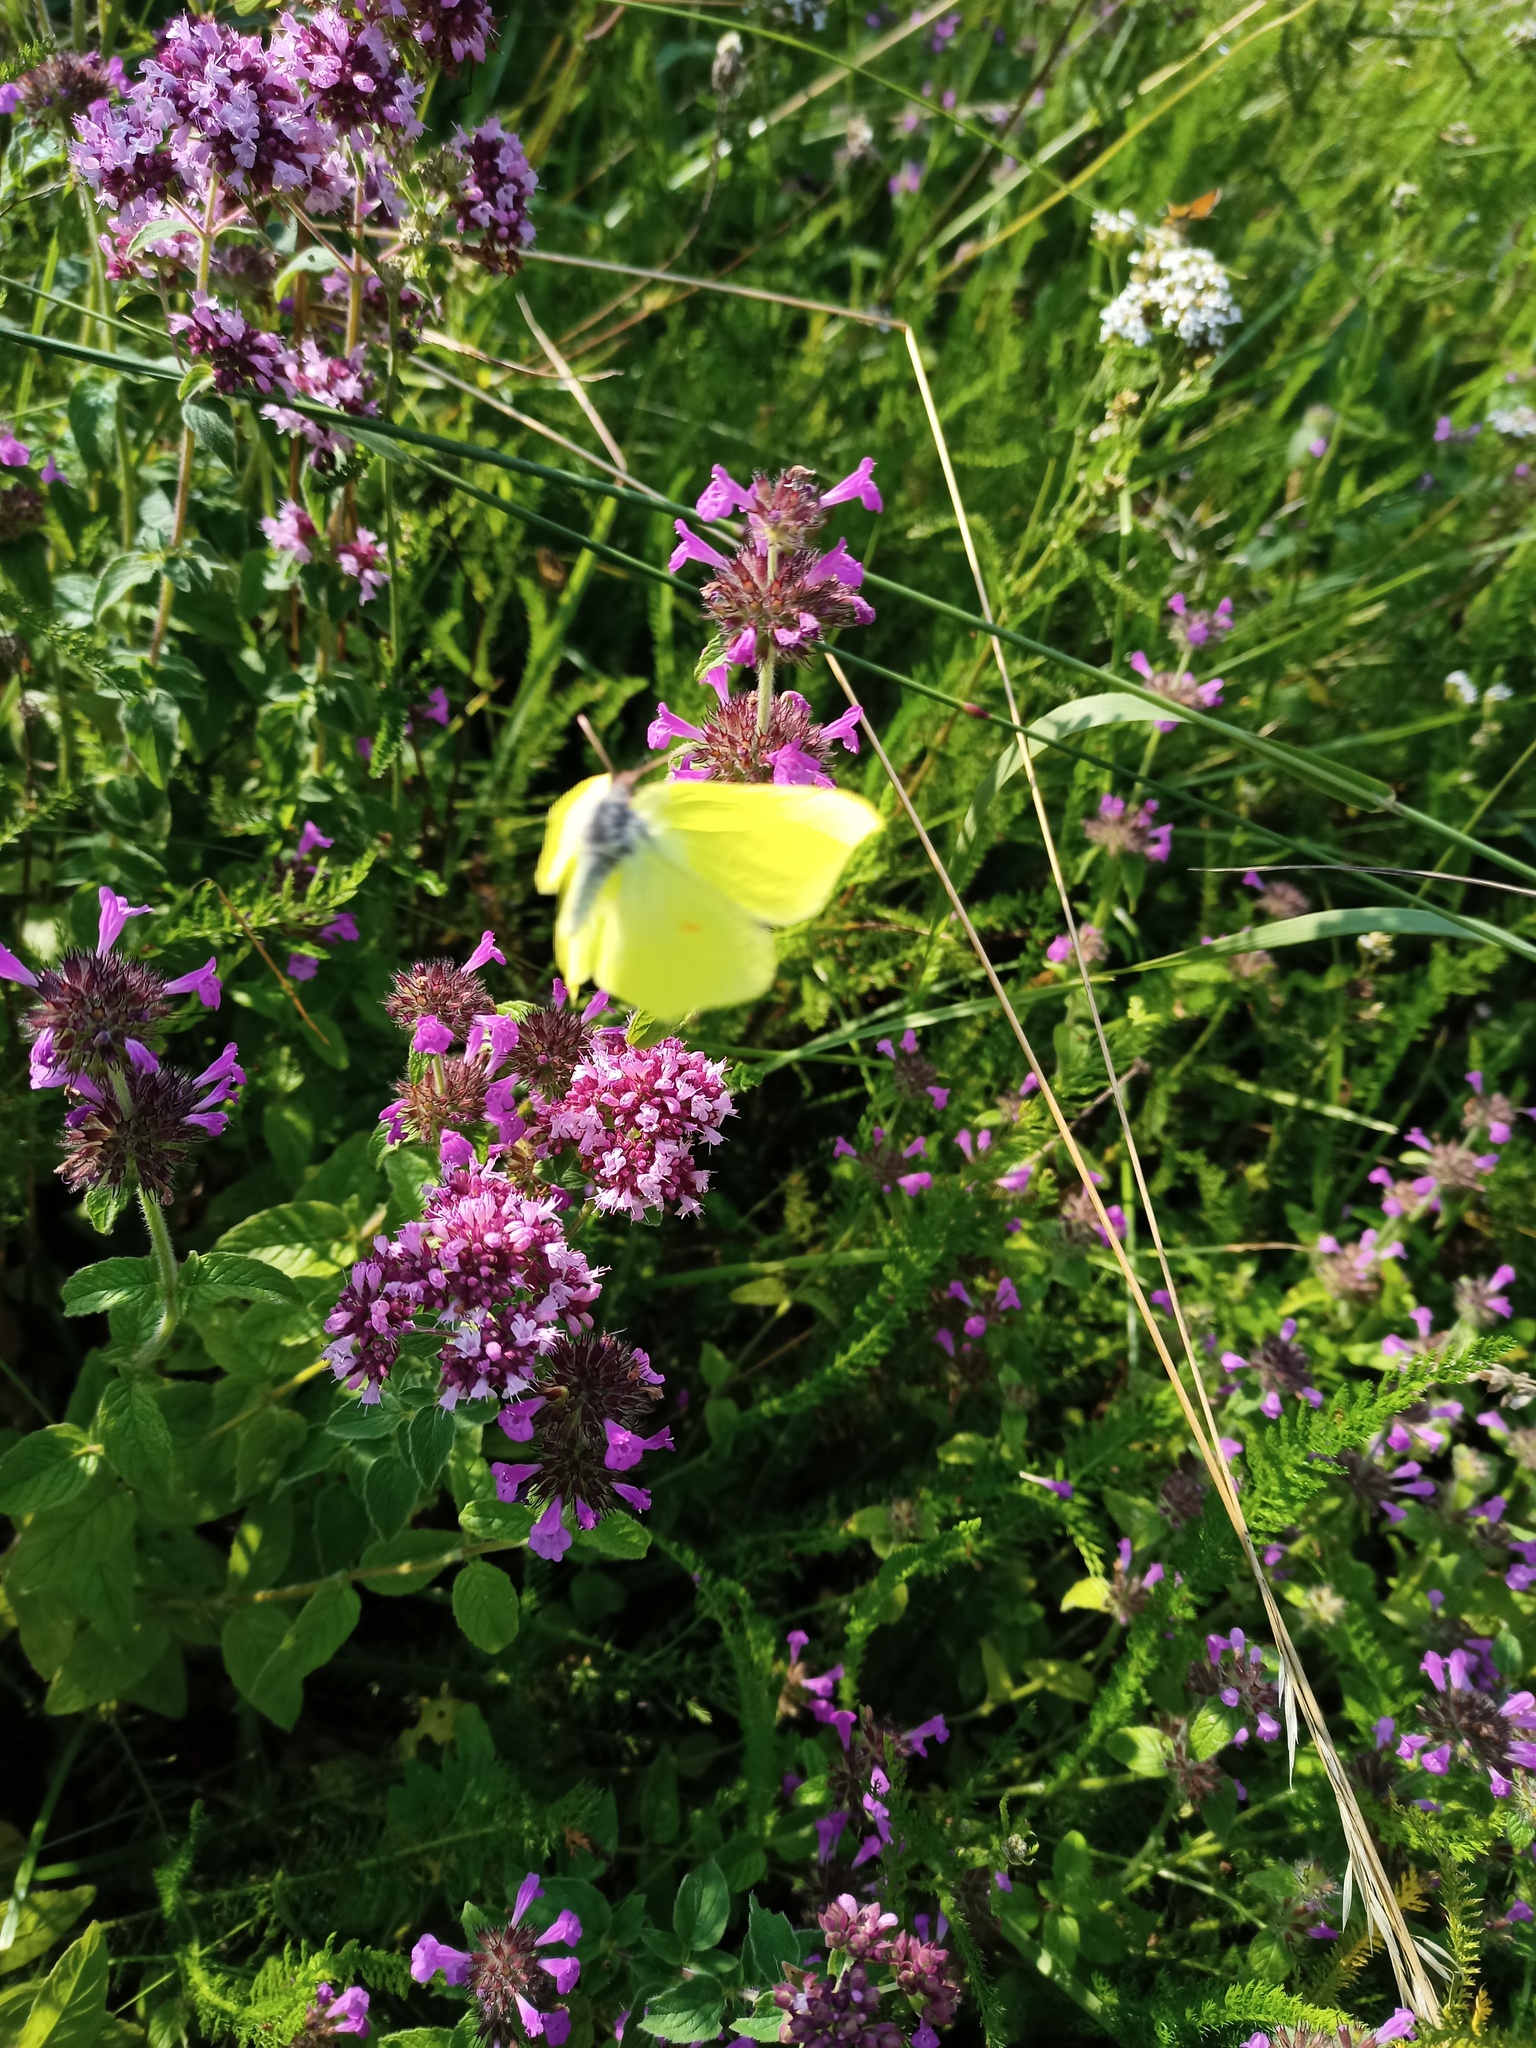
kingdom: Animalia
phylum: Arthropoda
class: Insecta
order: Lepidoptera
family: Pieridae
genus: Gonepteryx
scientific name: Gonepteryx rhamni
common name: Brimstone
